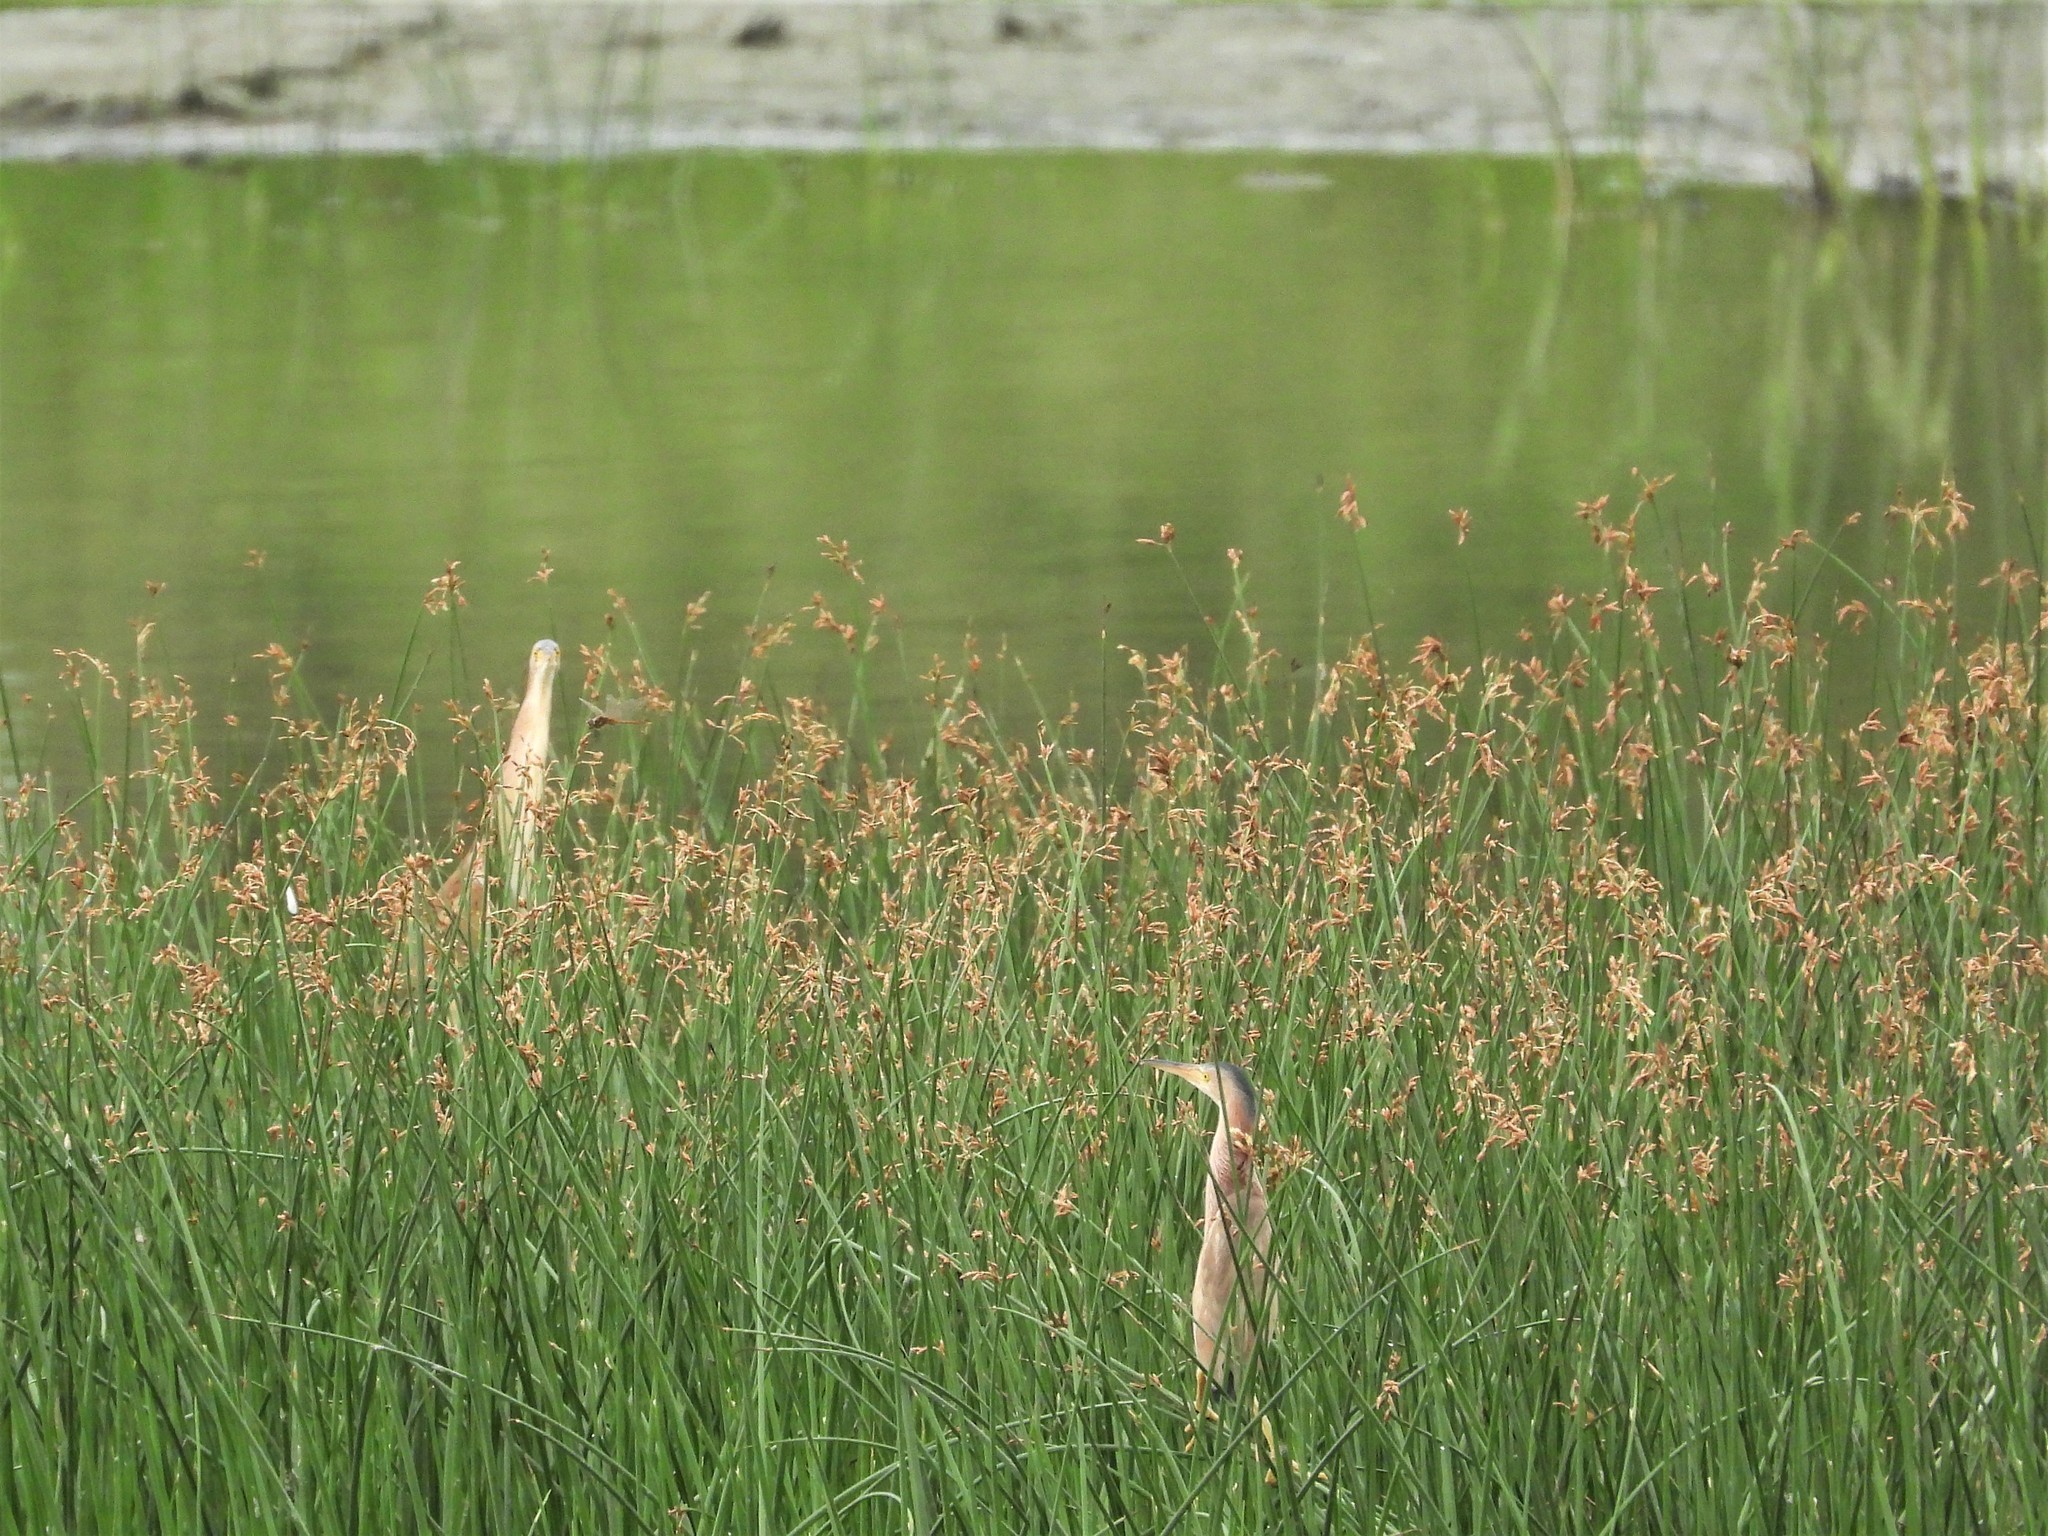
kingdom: Animalia
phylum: Chordata
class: Aves
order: Pelecaniformes
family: Ardeidae
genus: Ixobrychus
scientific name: Ixobrychus sinensis
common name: Yellow bittern
